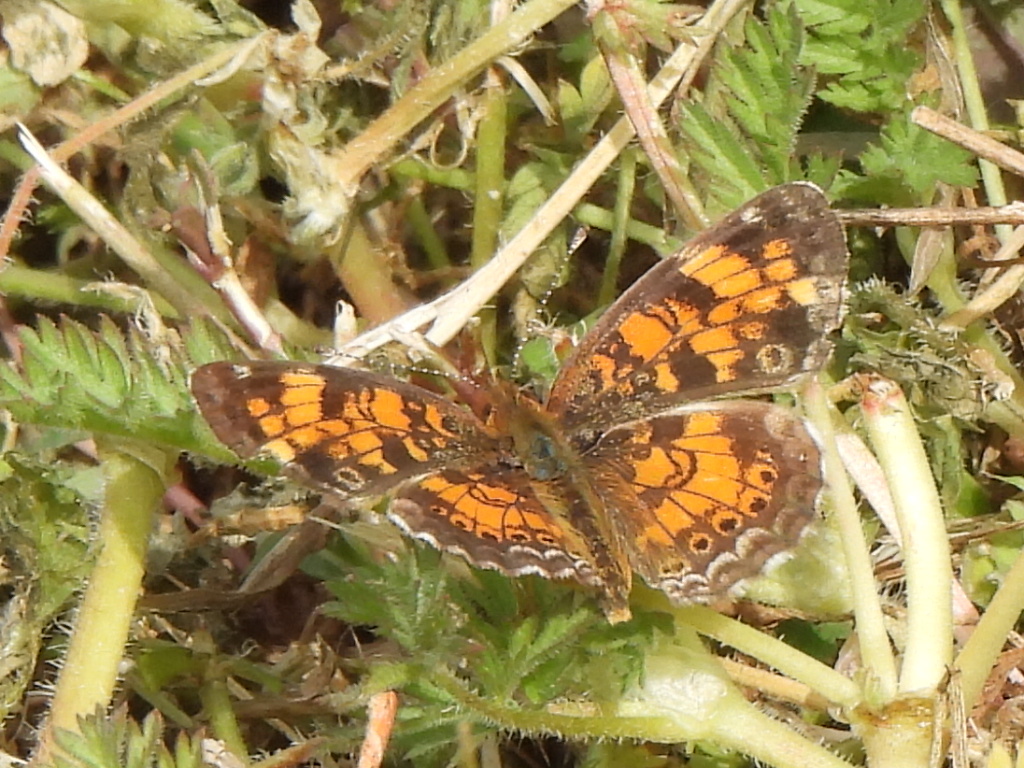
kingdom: Animalia
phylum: Arthropoda
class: Insecta
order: Lepidoptera
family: Nymphalidae
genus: Phyciodes
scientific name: Phyciodes tharos
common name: Pearl crescent
